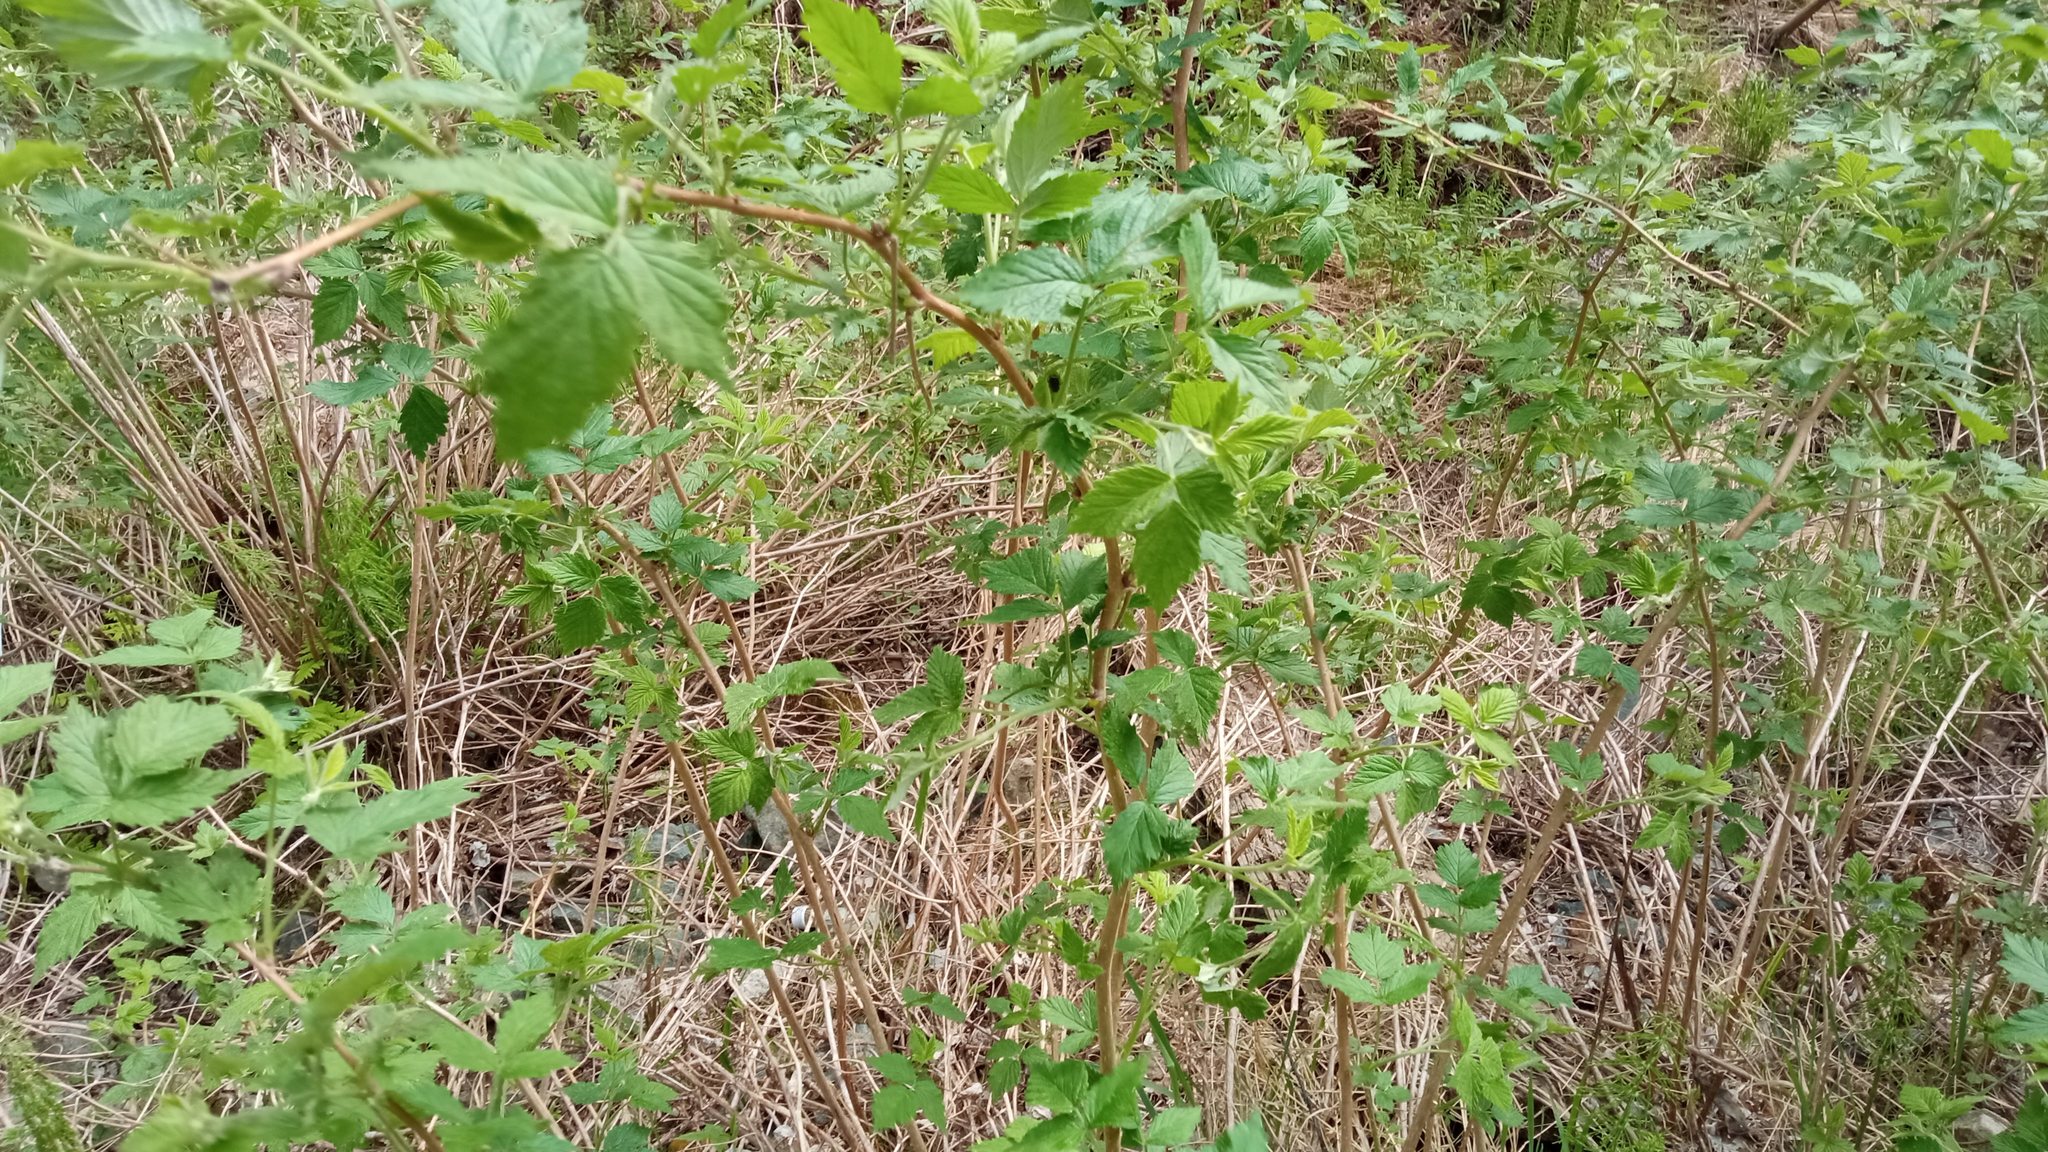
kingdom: Plantae
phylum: Tracheophyta
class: Magnoliopsida
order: Rosales
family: Rosaceae
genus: Rubus
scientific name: Rubus idaeus
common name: Raspberry
